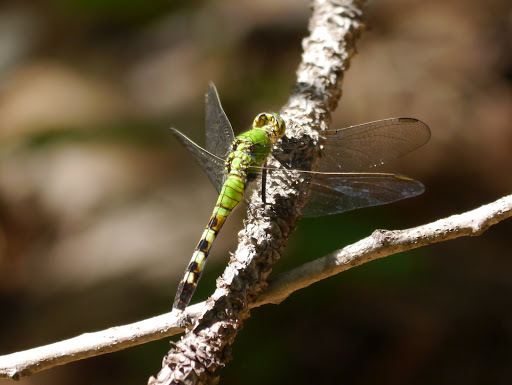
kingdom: Animalia
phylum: Arthropoda
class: Insecta
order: Odonata
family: Libellulidae
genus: Erythemis
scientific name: Erythemis simplicicollis
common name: Eastern pondhawk
